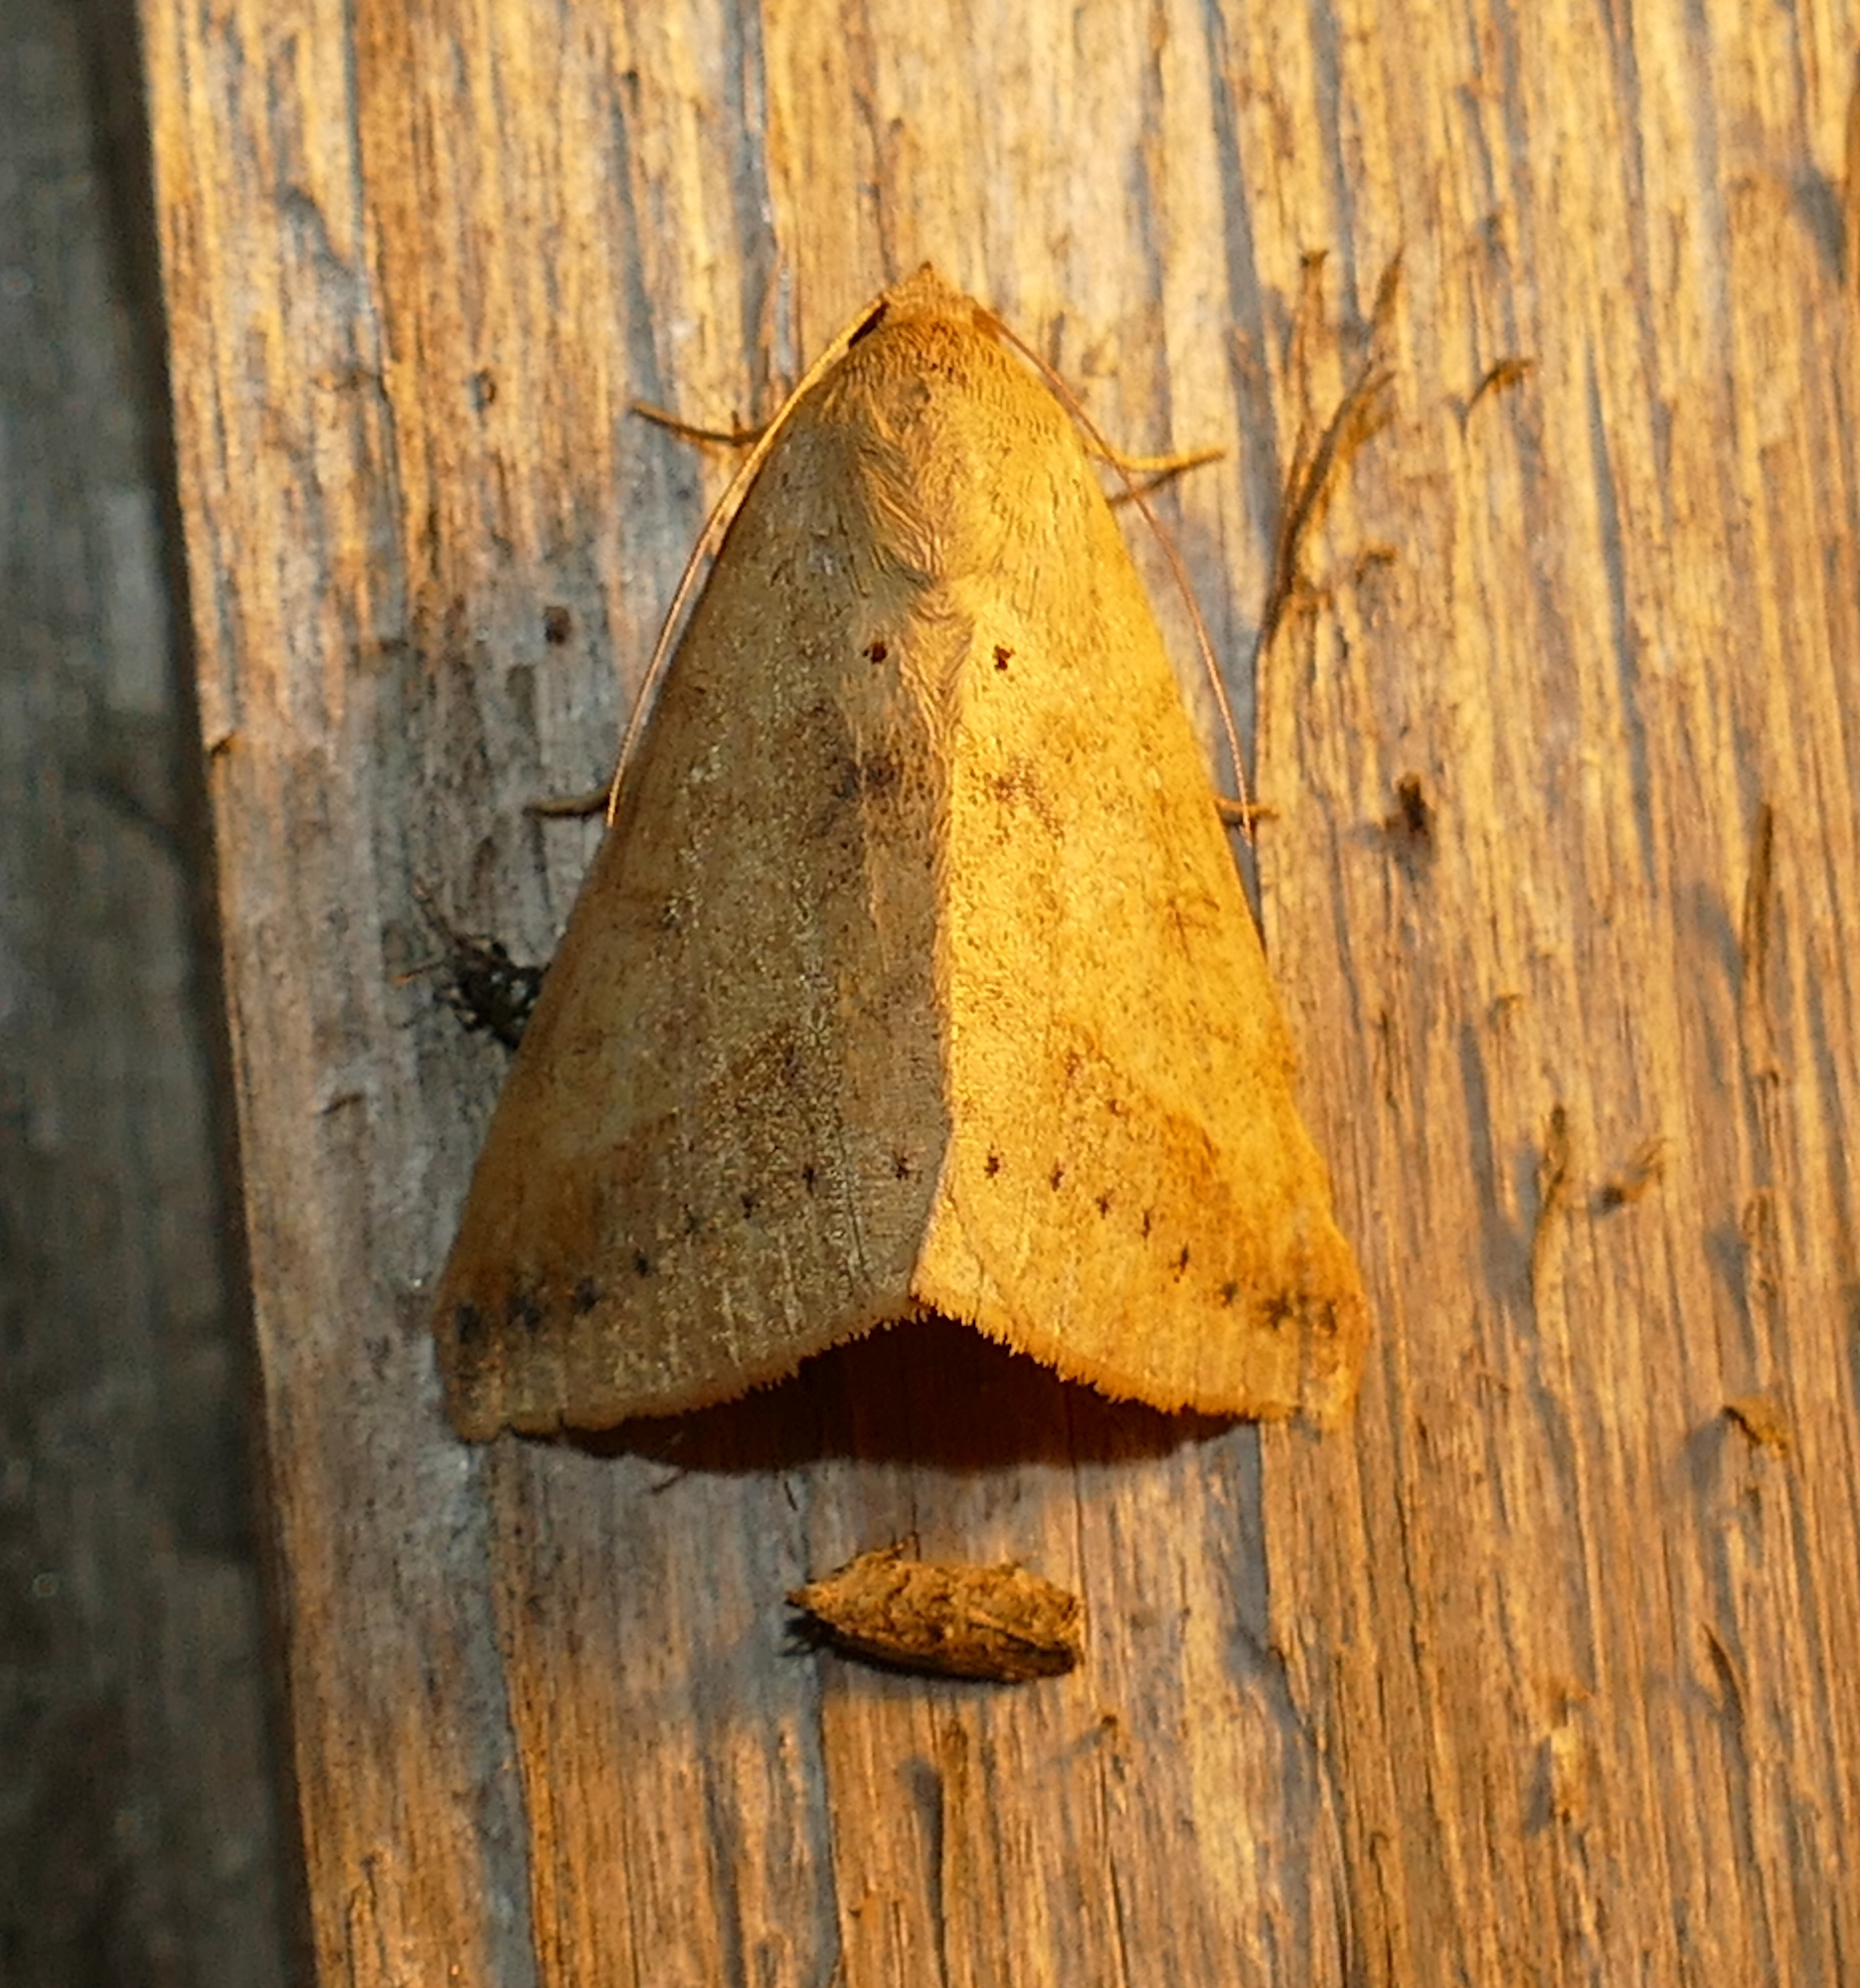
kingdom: Animalia
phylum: Arthropoda
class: Insecta
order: Lepidoptera
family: Erebidae
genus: Mocis
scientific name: Mocis disseverans
